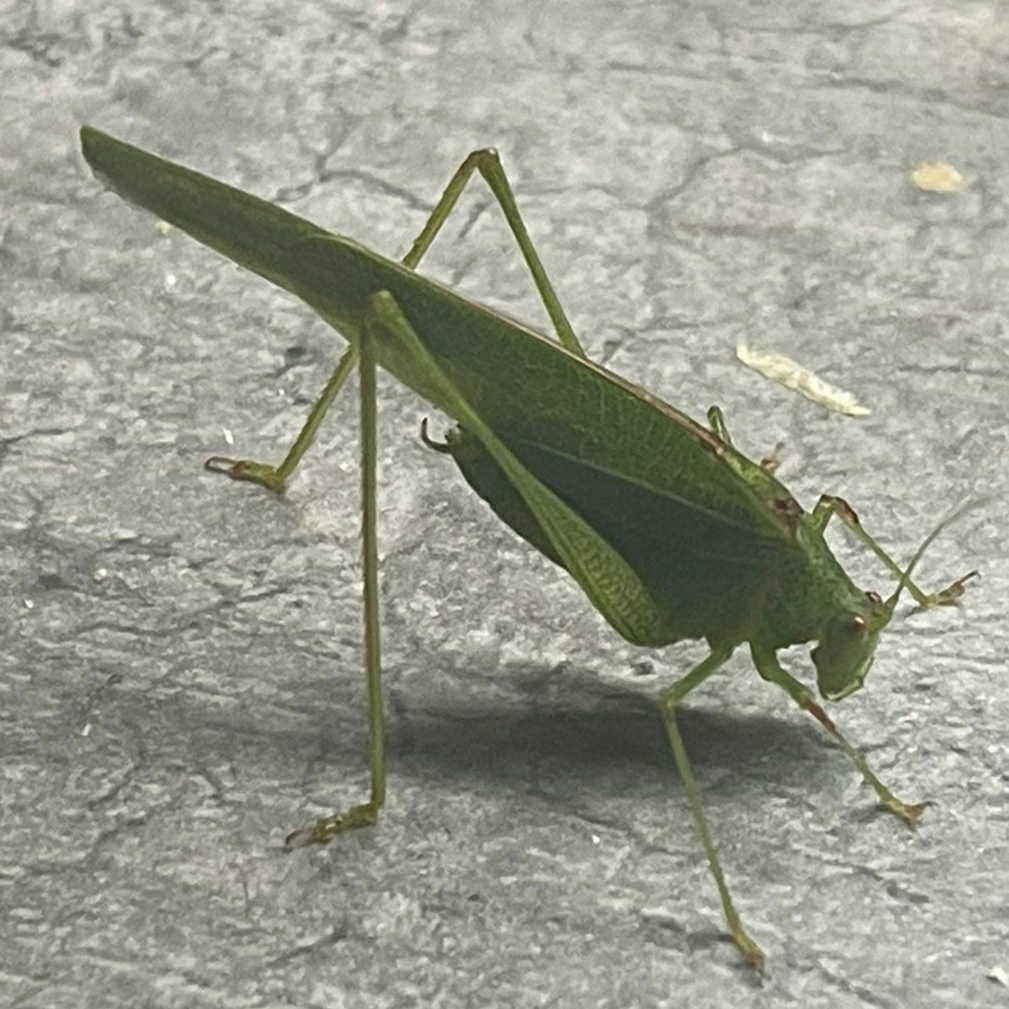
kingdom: Animalia
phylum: Arthropoda
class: Insecta
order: Orthoptera
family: Tettigoniidae
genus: Phaneroptera
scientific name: Phaneroptera nana
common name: Southern sickle bush-cricket
